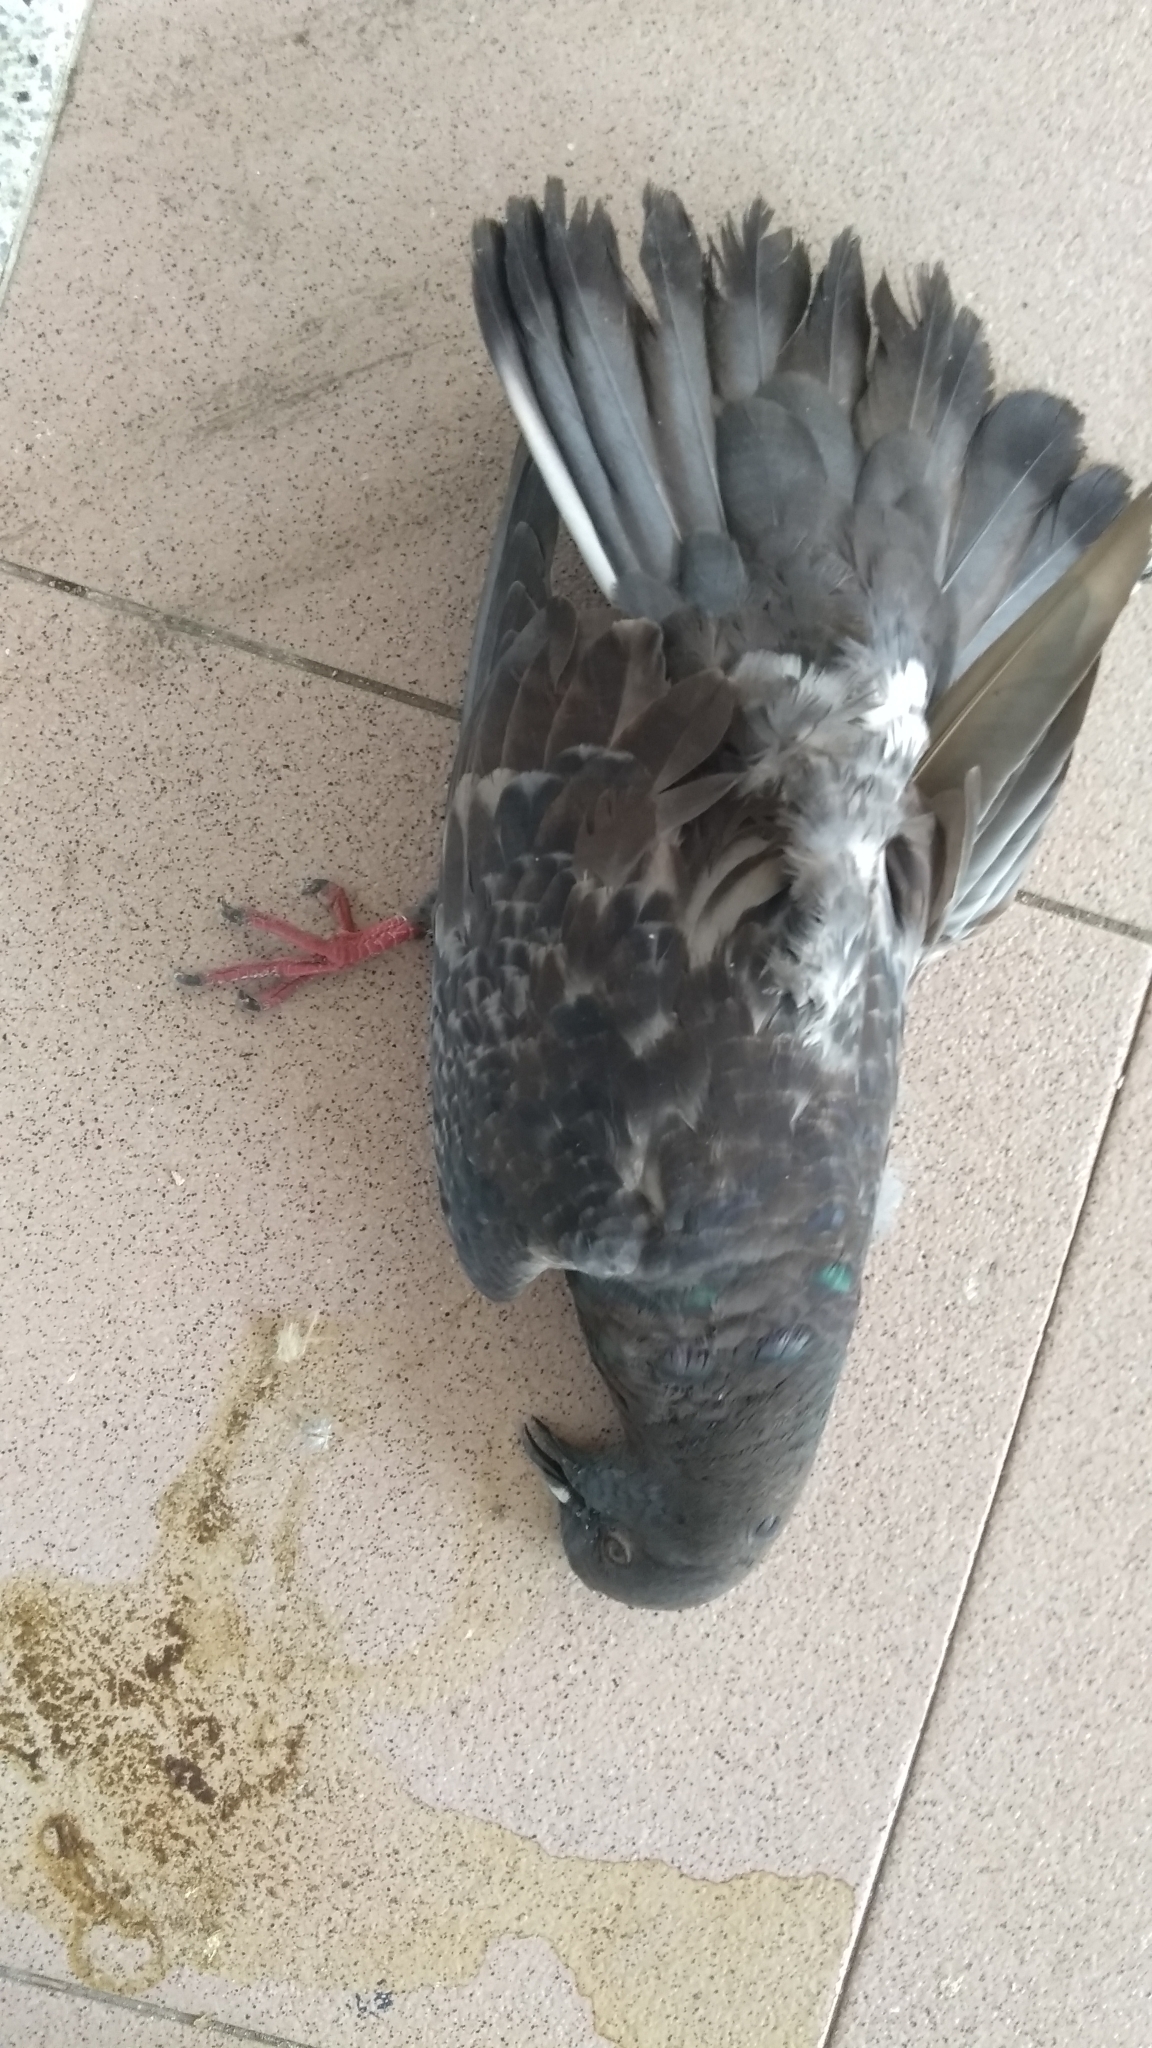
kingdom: Animalia
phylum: Chordata
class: Aves
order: Columbiformes
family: Columbidae
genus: Columba
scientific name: Columba livia
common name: Rock pigeon
